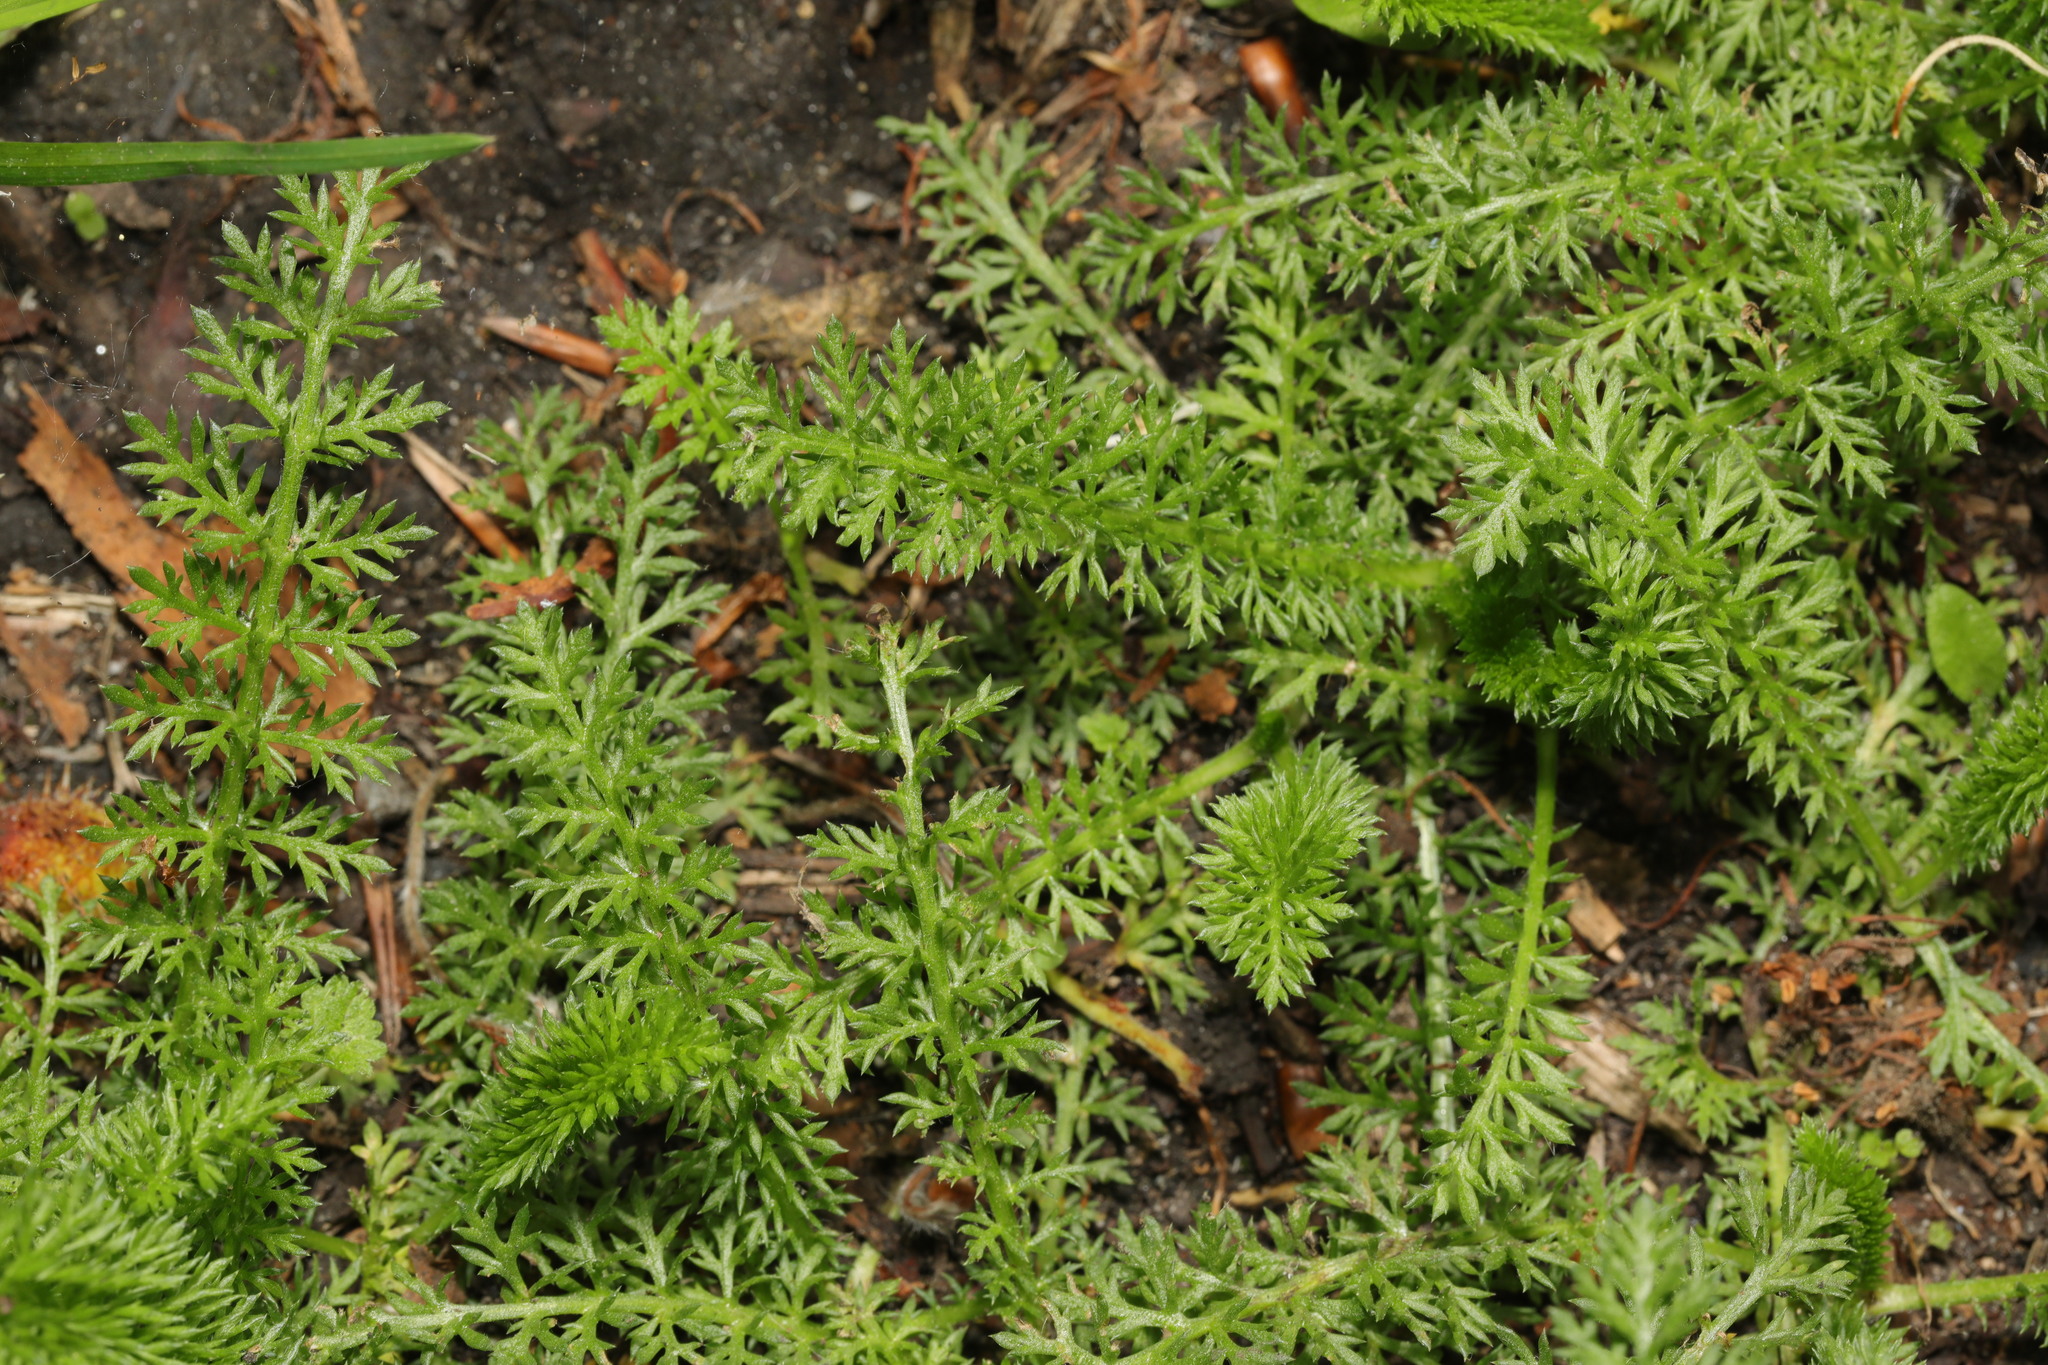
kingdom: Plantae
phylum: Tracheophyta
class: Magnoliopsida
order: Asterales
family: Asteraceae
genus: Achillea
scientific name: Achillea millefolium
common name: Yarrow
